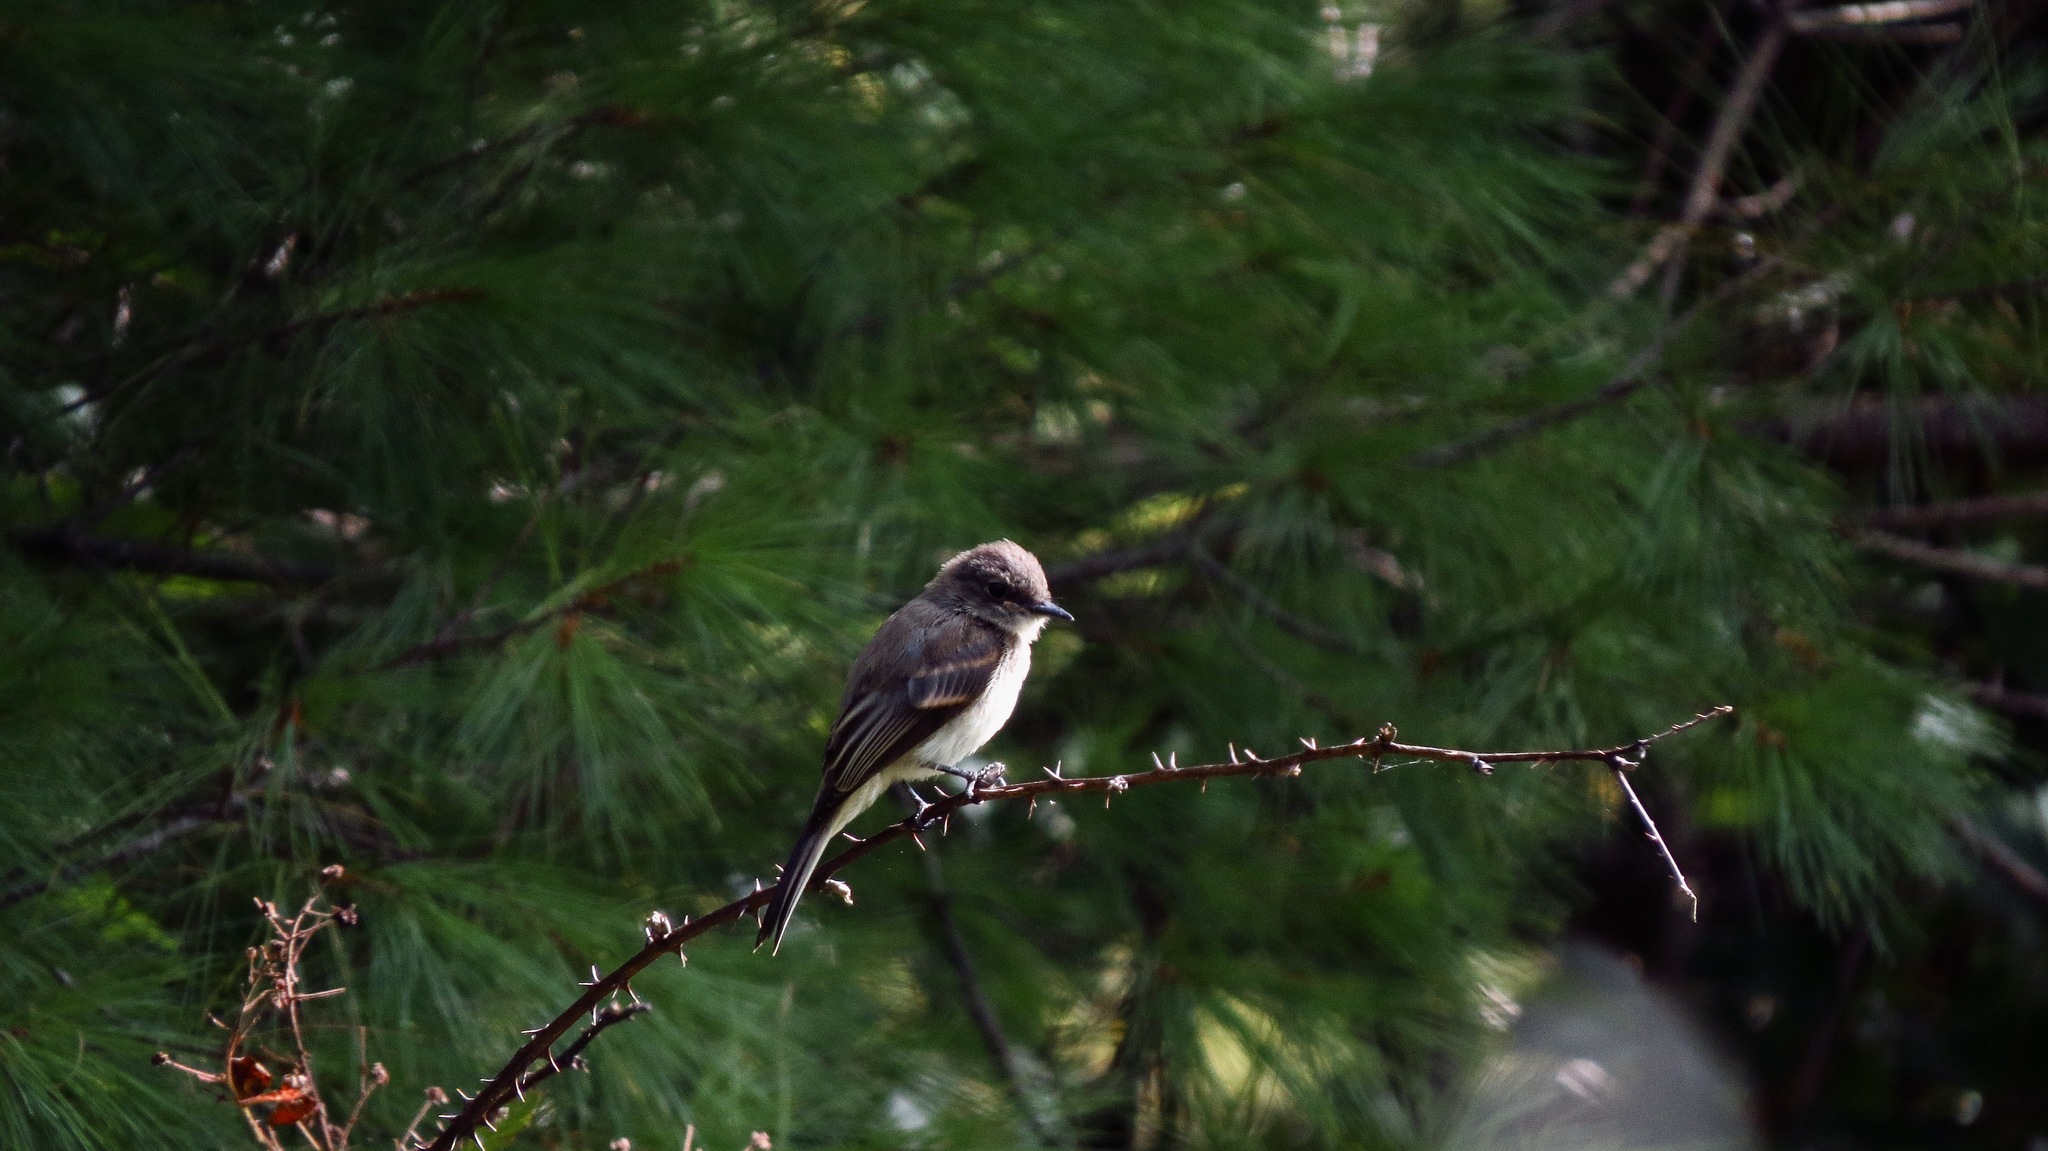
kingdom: Animalia
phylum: Chordata
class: Aves
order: Passeriformes
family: Tyrannidae
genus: Sayornis
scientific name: Sayornis phoebe
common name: Eastern phoebe
